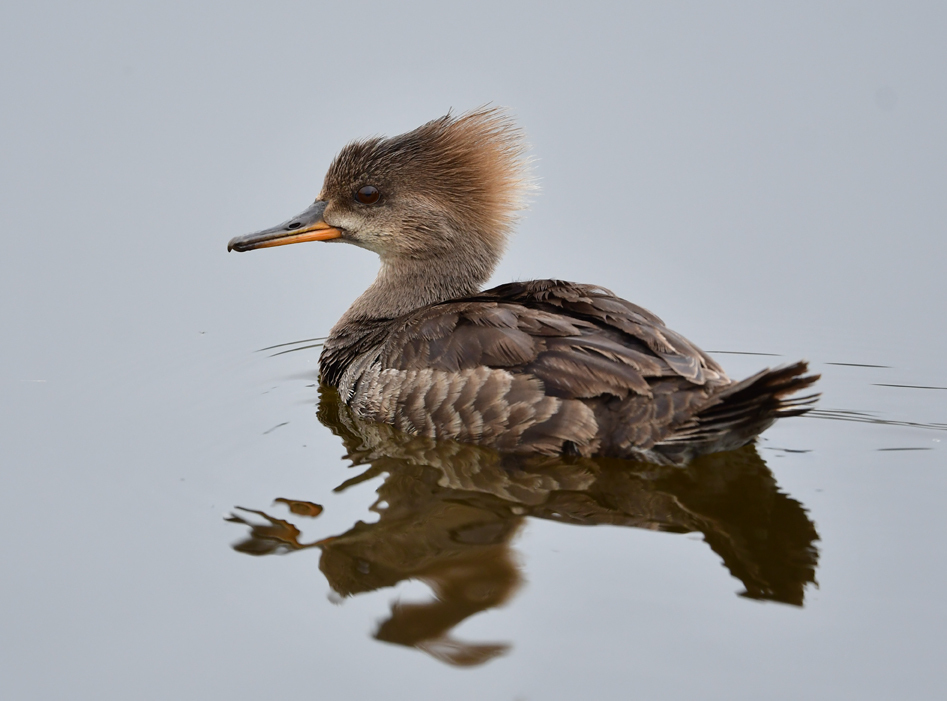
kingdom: Animalia
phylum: Chordata
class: Aves
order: Anseriformes
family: Anatidae
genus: Lophodytes
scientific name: Lophodytes cucullatus
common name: Hooded merganser
